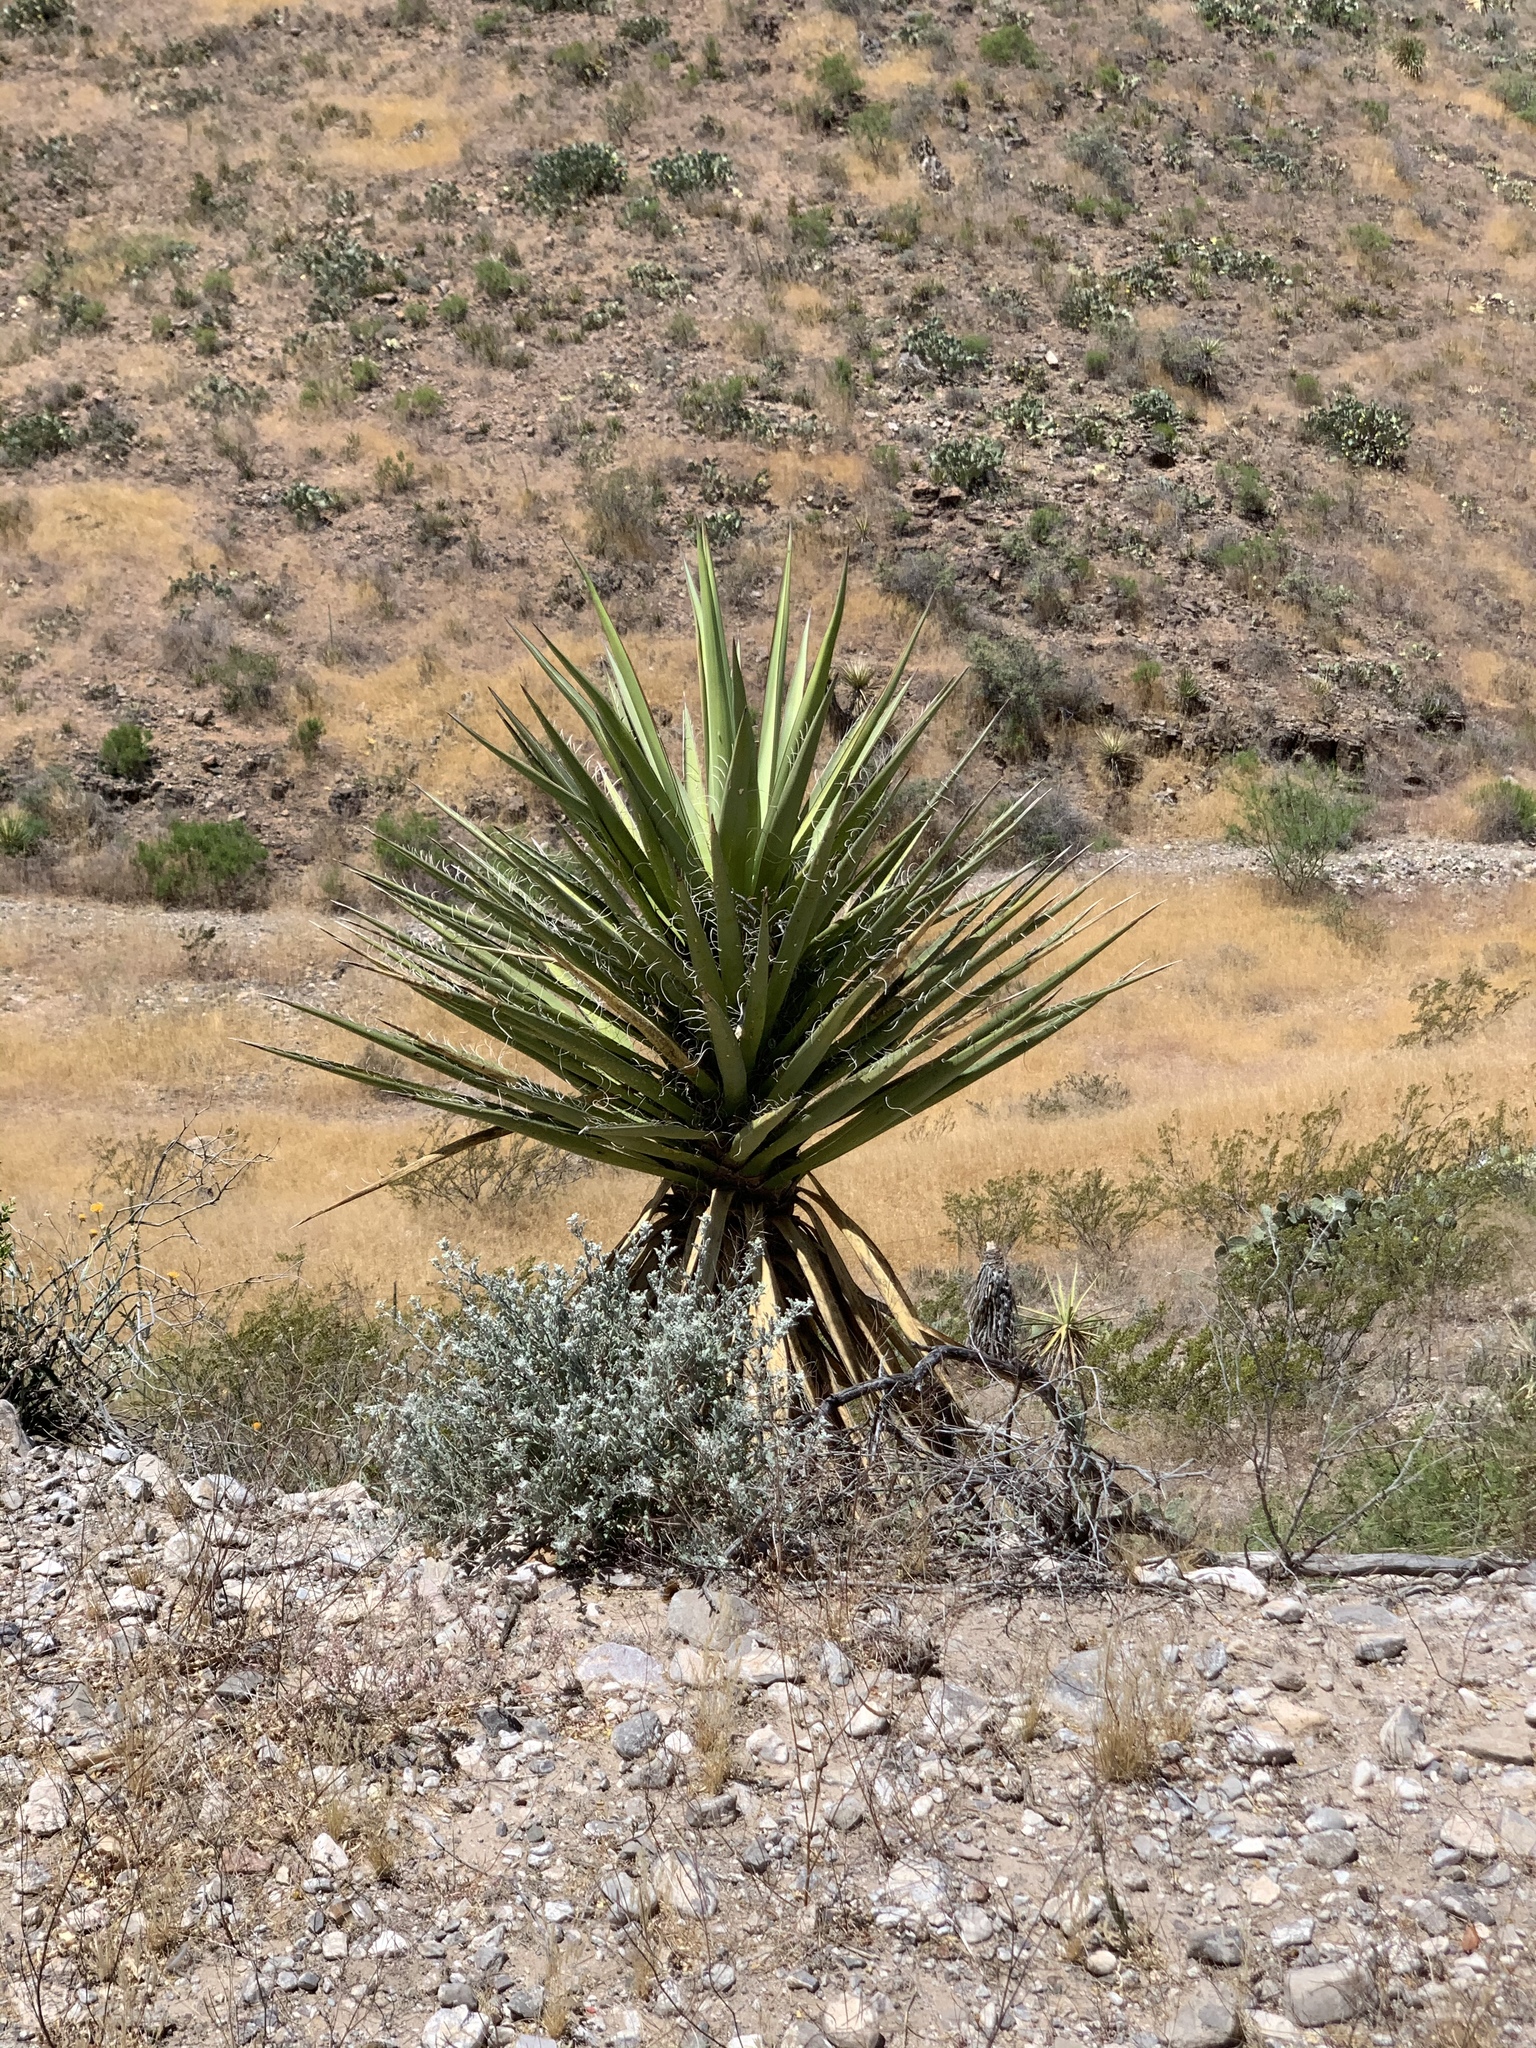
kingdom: Plantae
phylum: Tracheophyta
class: Liliopsida
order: Asparagales
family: Asparagaceae
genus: Yucca
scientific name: Yucca treculiana
